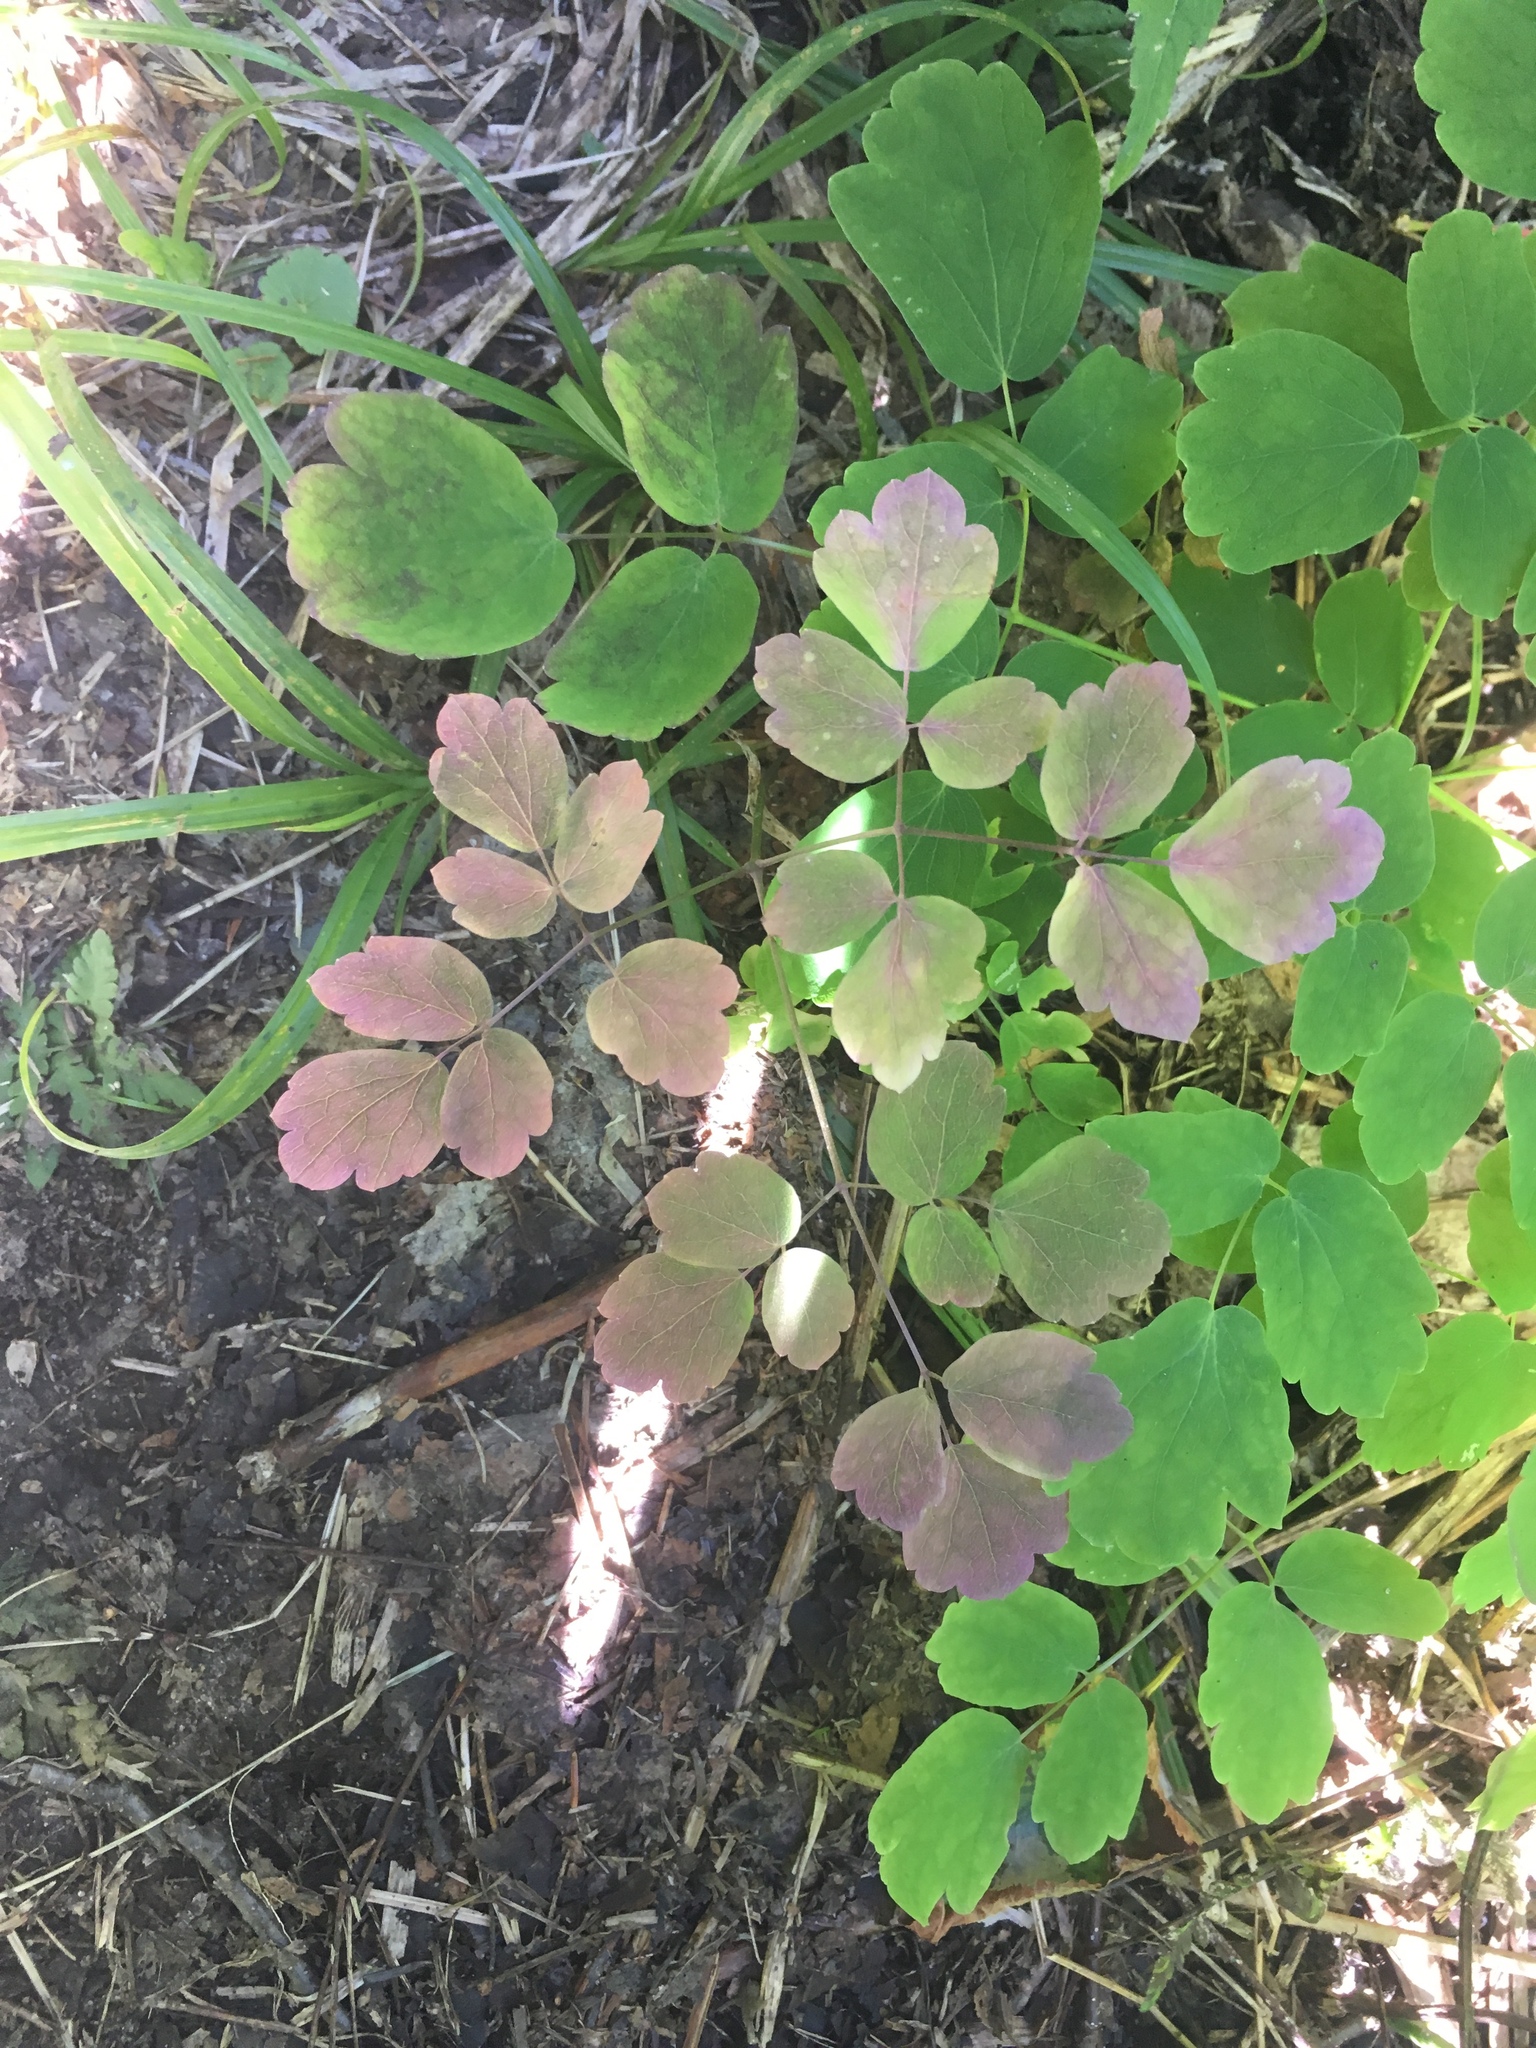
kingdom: Plantae
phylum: Tracheophyta
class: Magnoliopsida
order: Ranunculales
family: Ranunculaceae
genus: Thalictrum
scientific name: Thalictrum pubescens
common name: King-of-the-meadow
